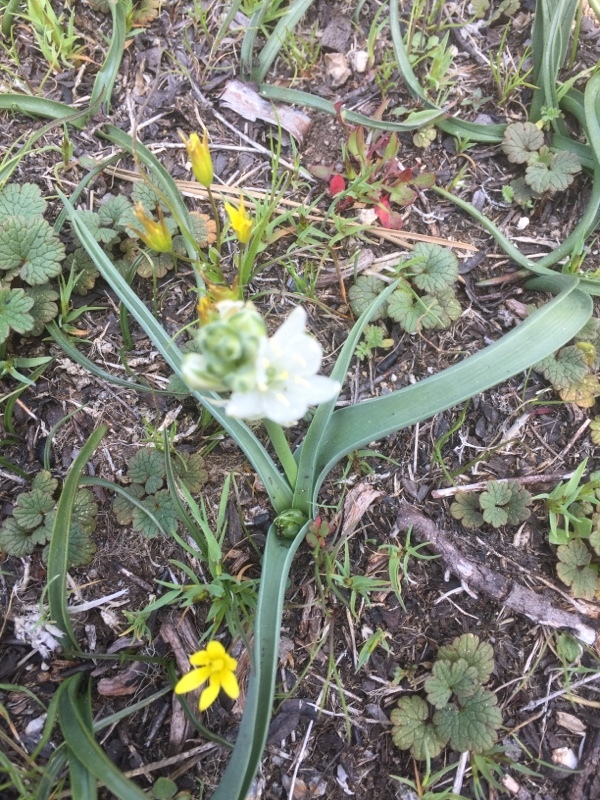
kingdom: Plantae
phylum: Tracheophyta
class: Liliopsida
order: Asparagales
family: Asparagaceae
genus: Ornithogalum
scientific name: Ornithogalum concinnum
